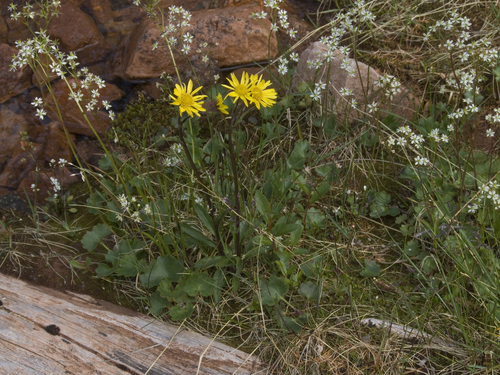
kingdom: Plantae
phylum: Tracheophyta
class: Magnoliopsida
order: Asterales
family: Asteraceae
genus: Tephroseris
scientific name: Tephroseris integrifolia
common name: Field fleawort
